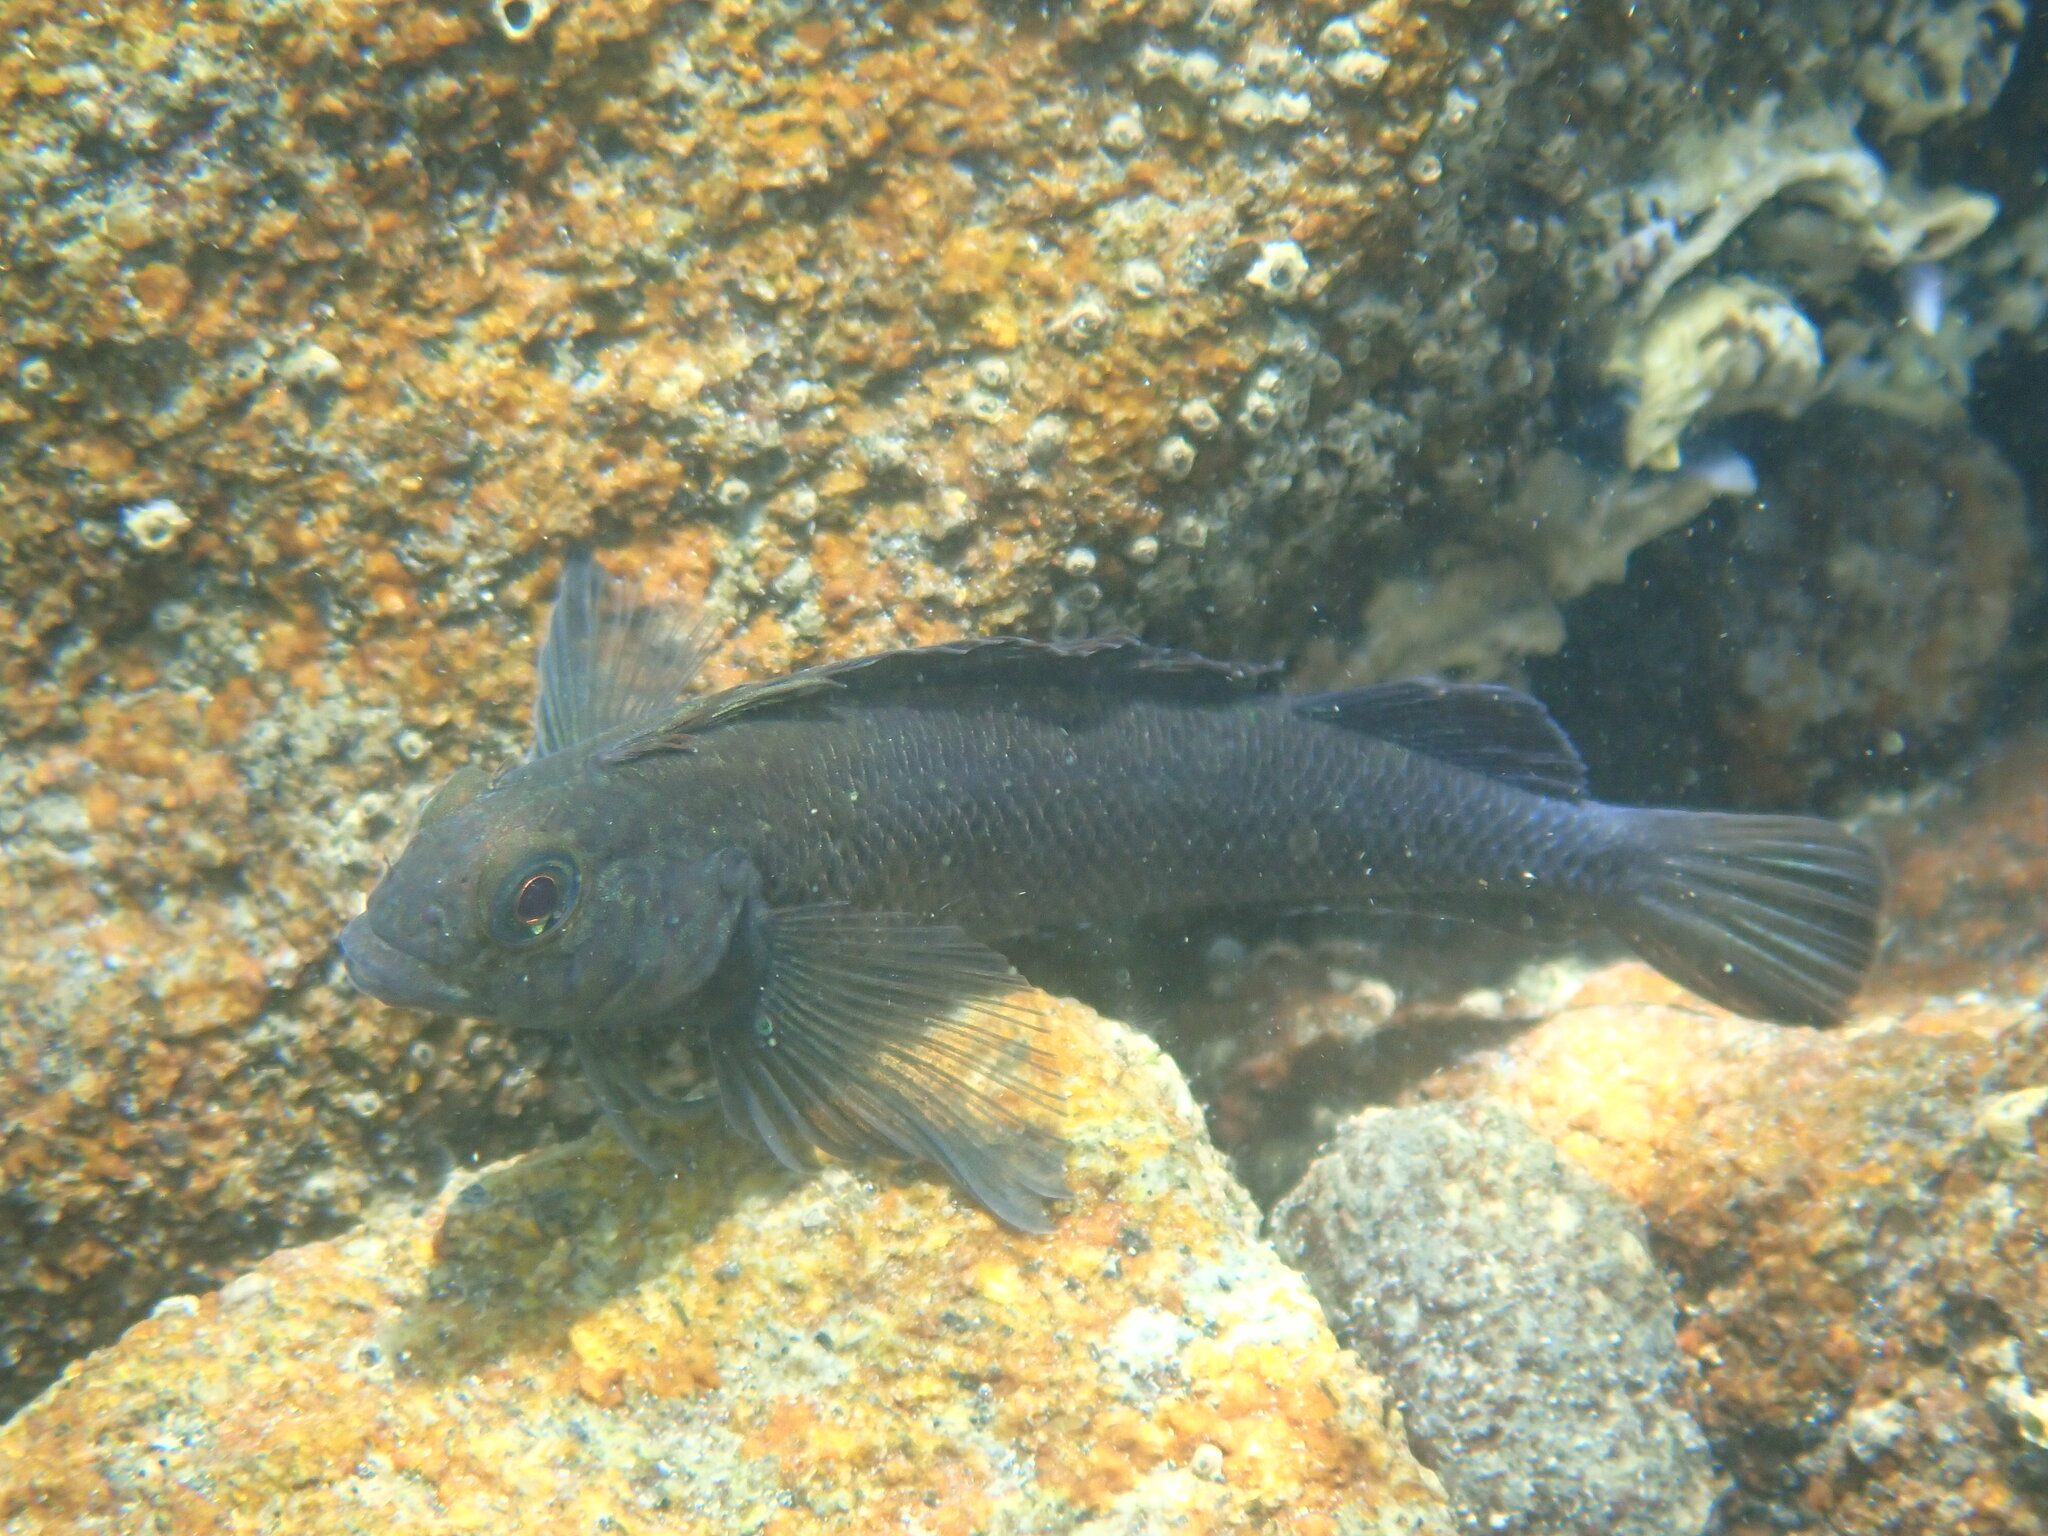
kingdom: Animalia
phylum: Chordata
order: Perciformes
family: Tripterygiidae
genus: Forsterygion
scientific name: Forsterygion lapillum
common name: Common triplefin
